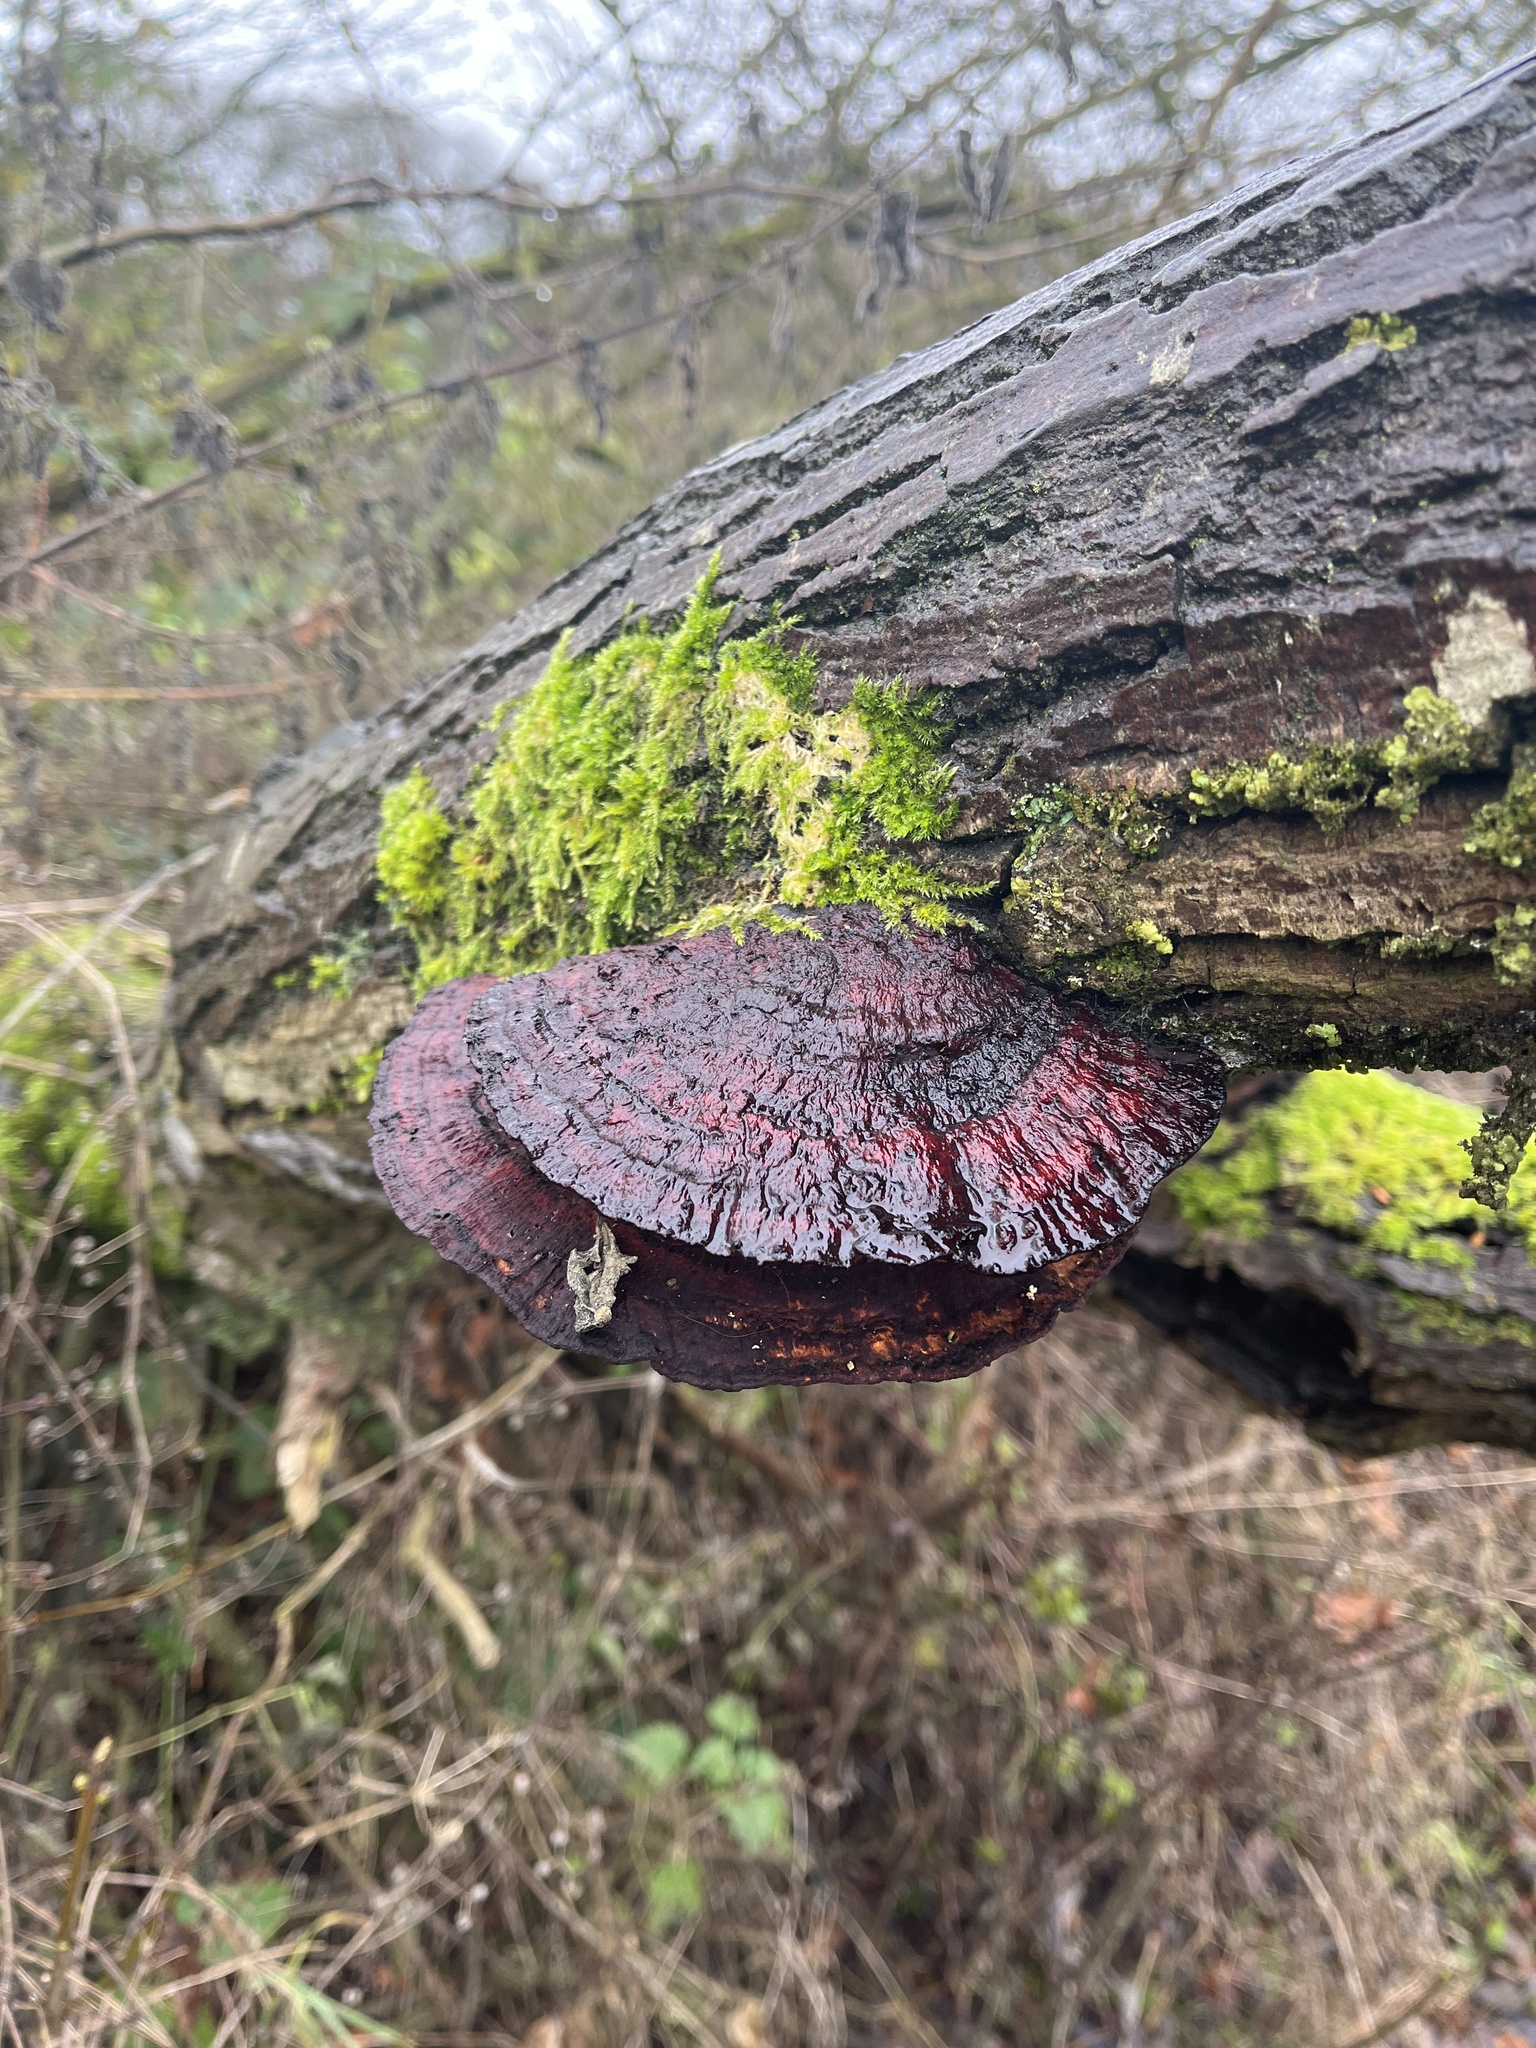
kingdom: Fungi
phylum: Basidiomycota
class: Agaricomycetes
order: Polyporales
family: Polyporaceae
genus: Daedaleopsis
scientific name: Daedaleopsis confragosa
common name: Blushing bracket
